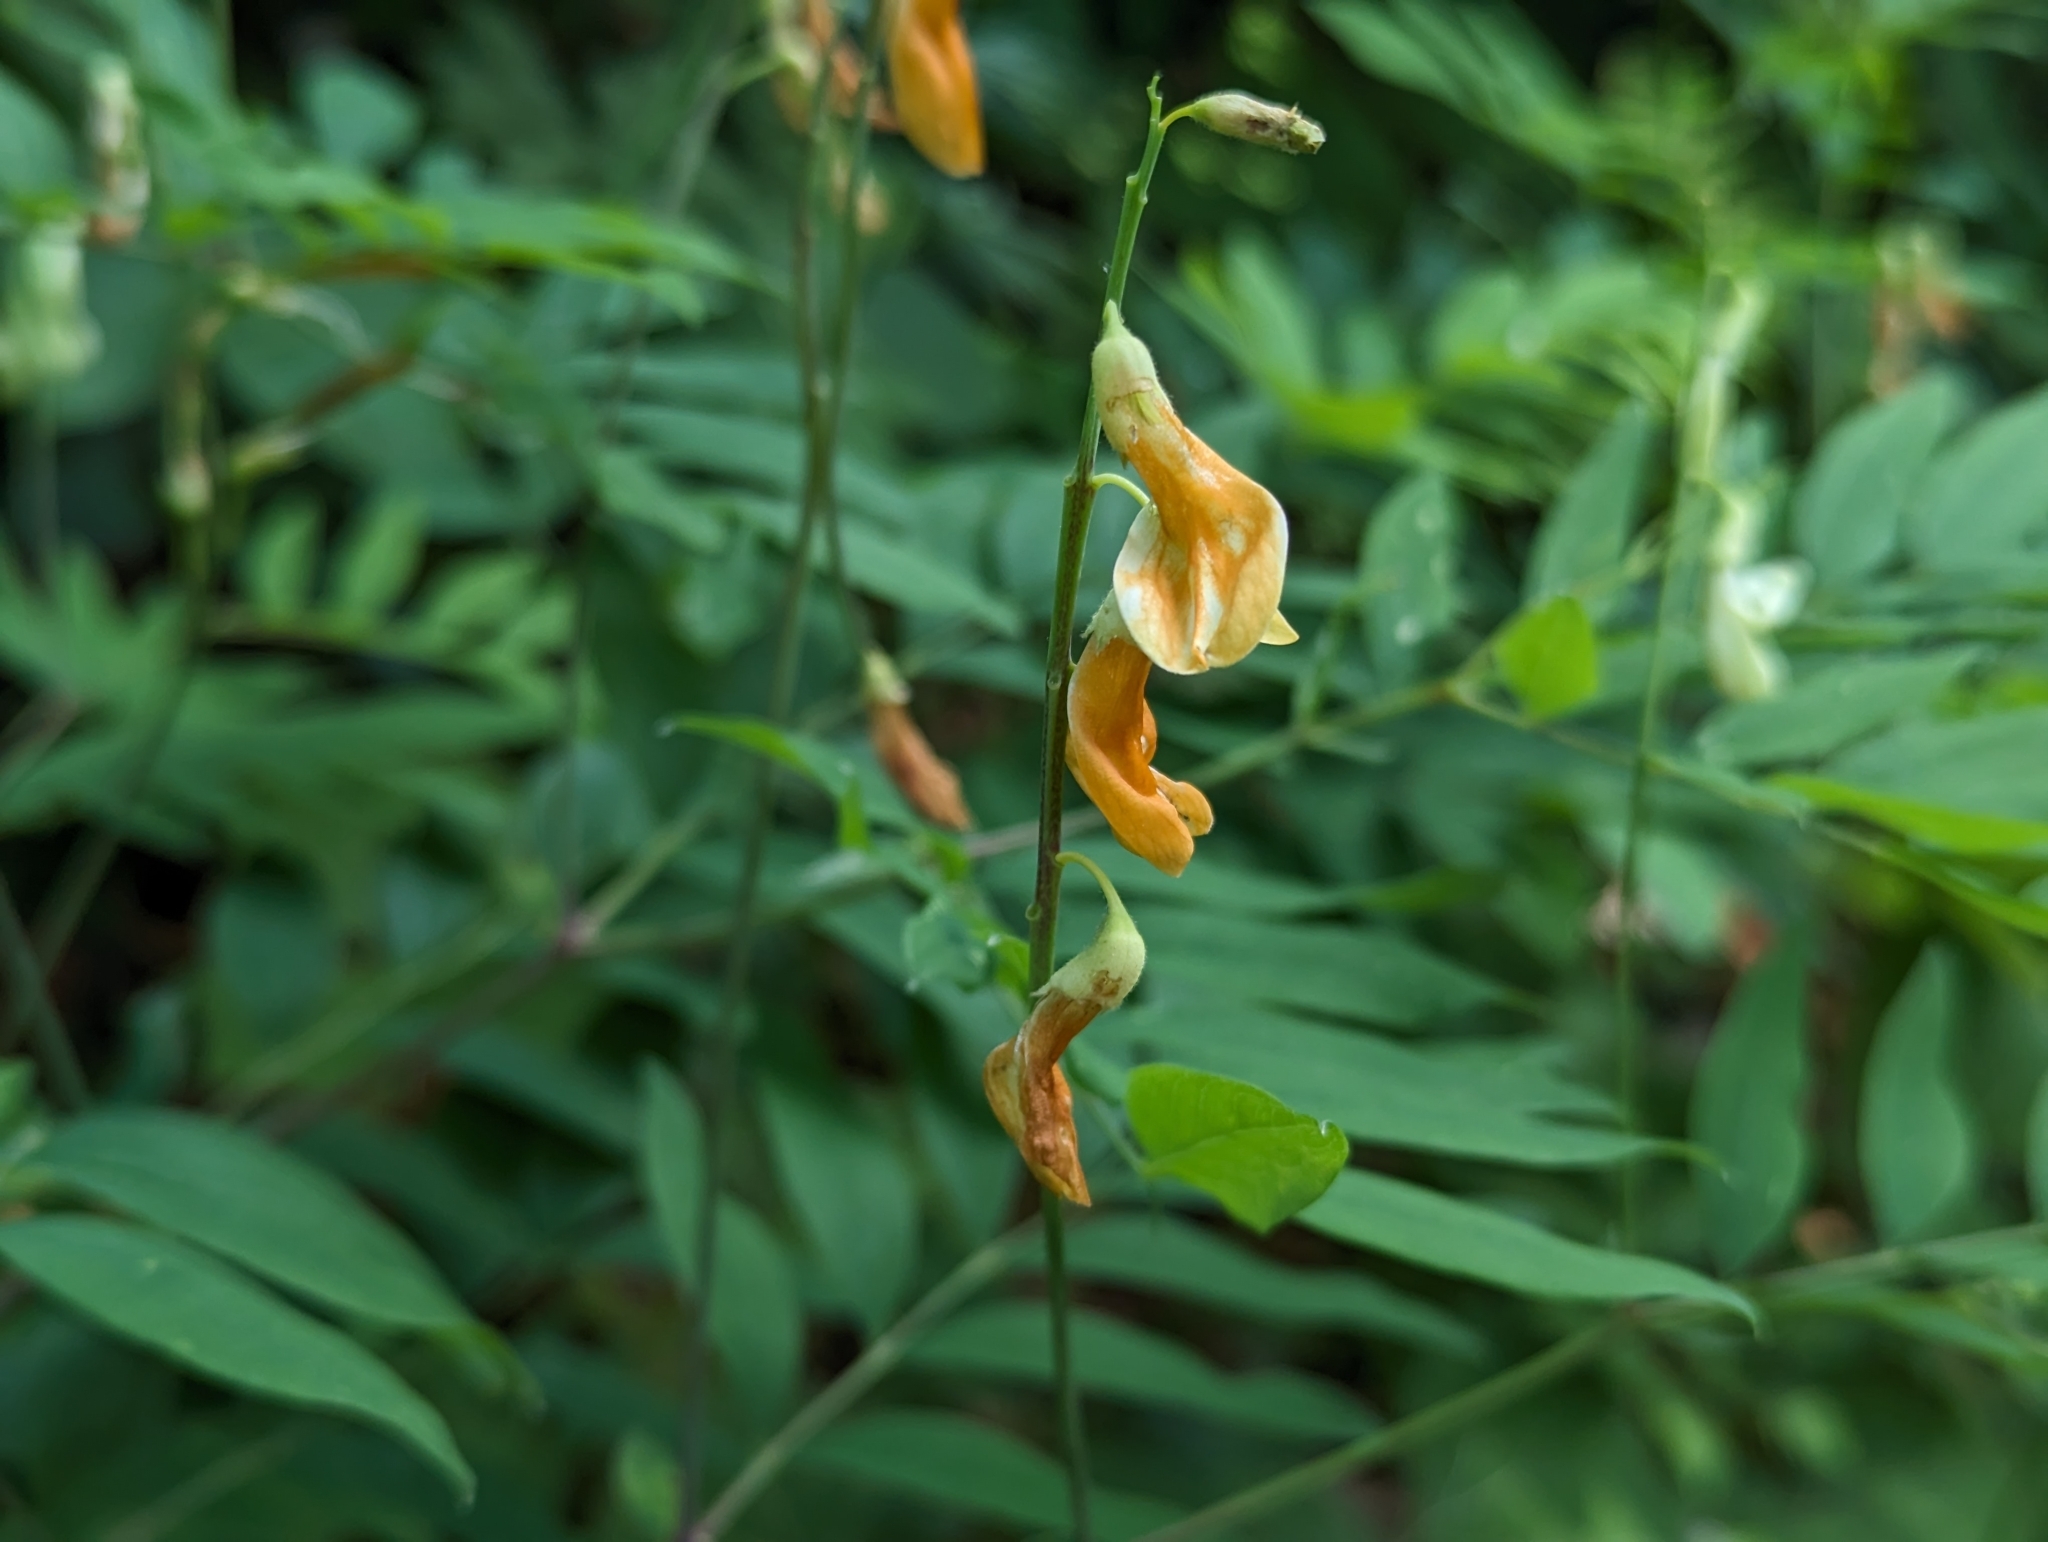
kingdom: Plantae
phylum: Tracheophyta
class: Magnoliopsida
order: Fabales
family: Fabaceae
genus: Lathyrus
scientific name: Lathyrus laevigatus
